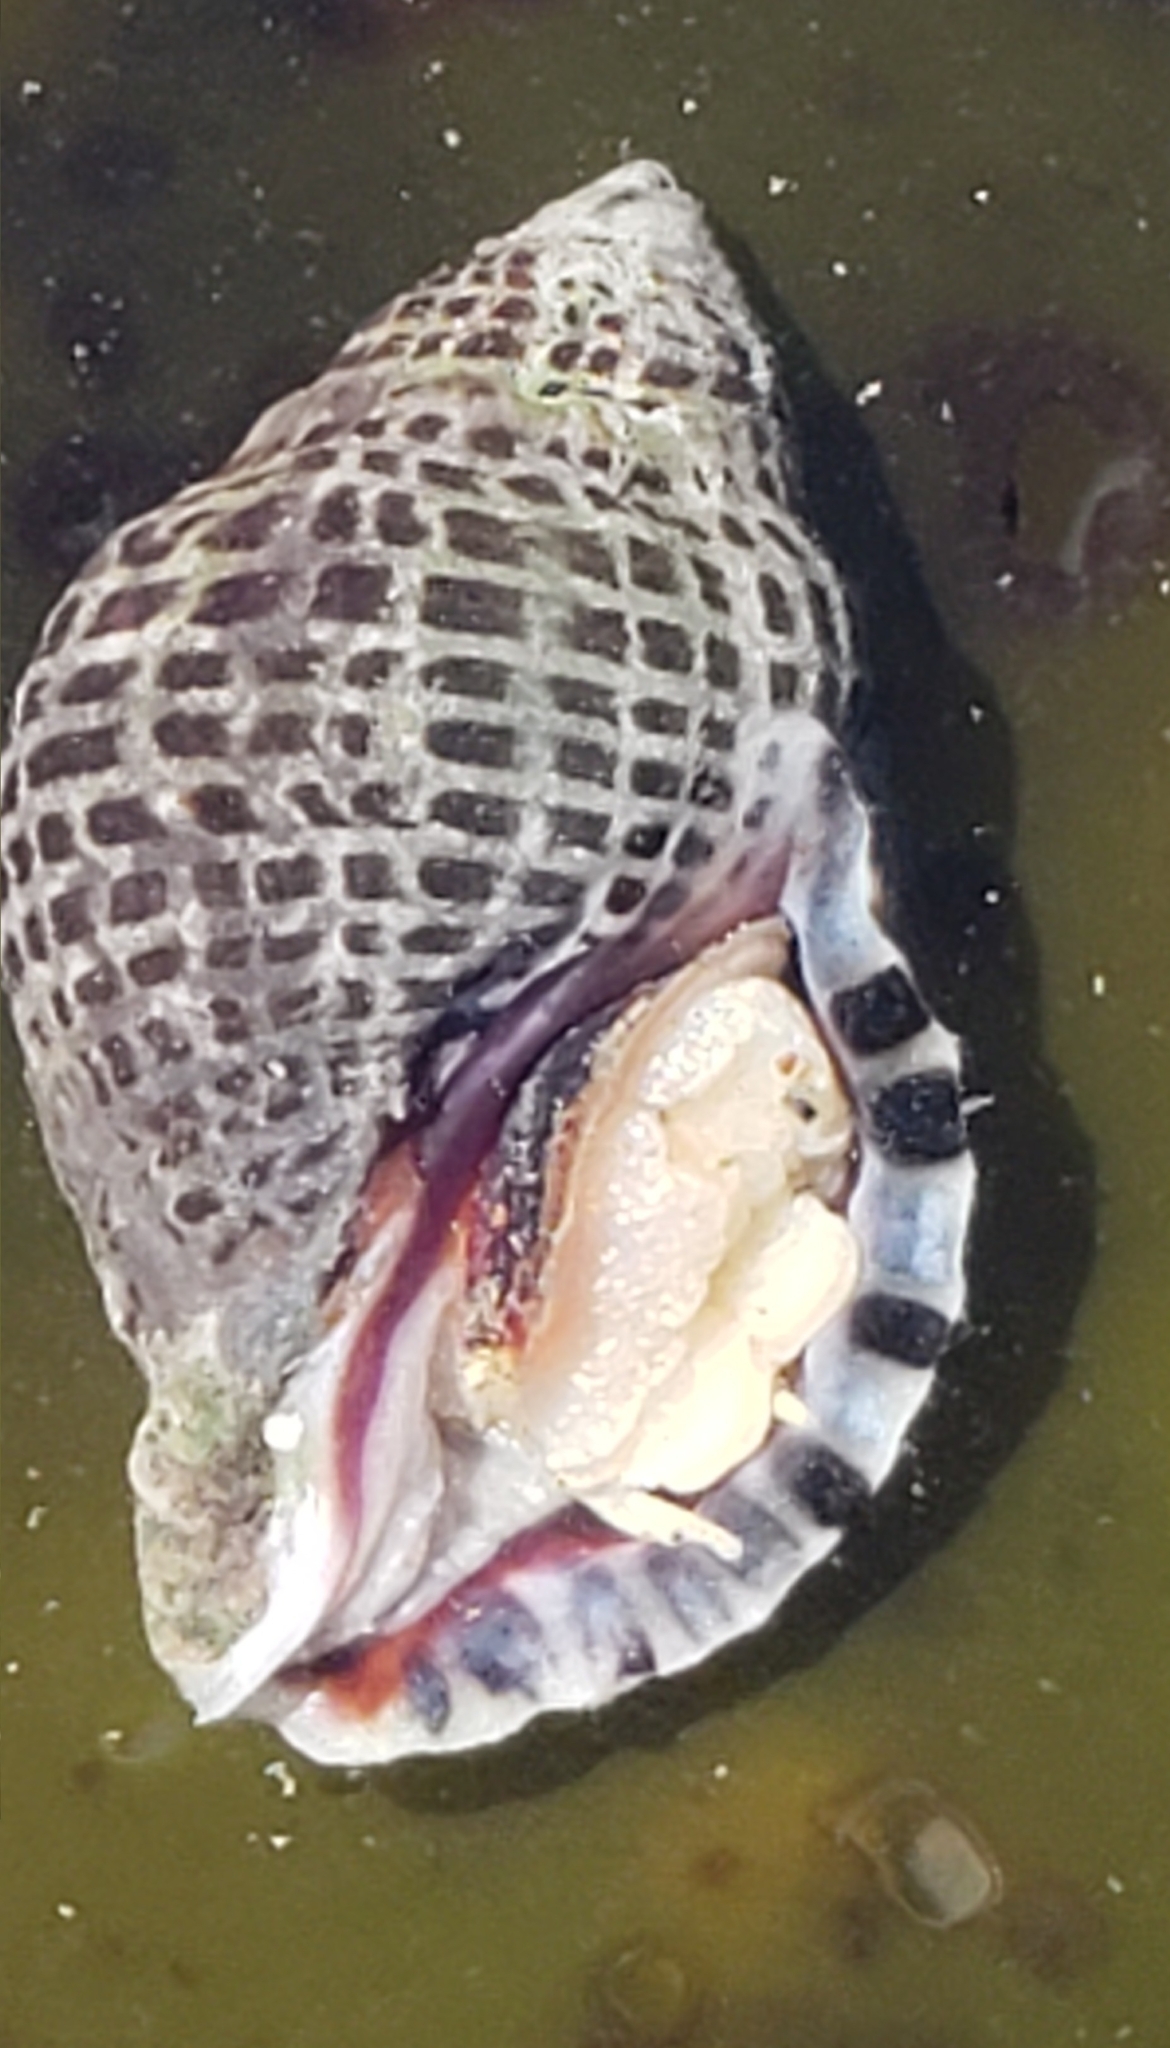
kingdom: Animalia
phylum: Mollusca
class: Gastropoda
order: Neogastropoda
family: Muricidae
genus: Acanthinucella
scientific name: Acanthinucella punctulata
